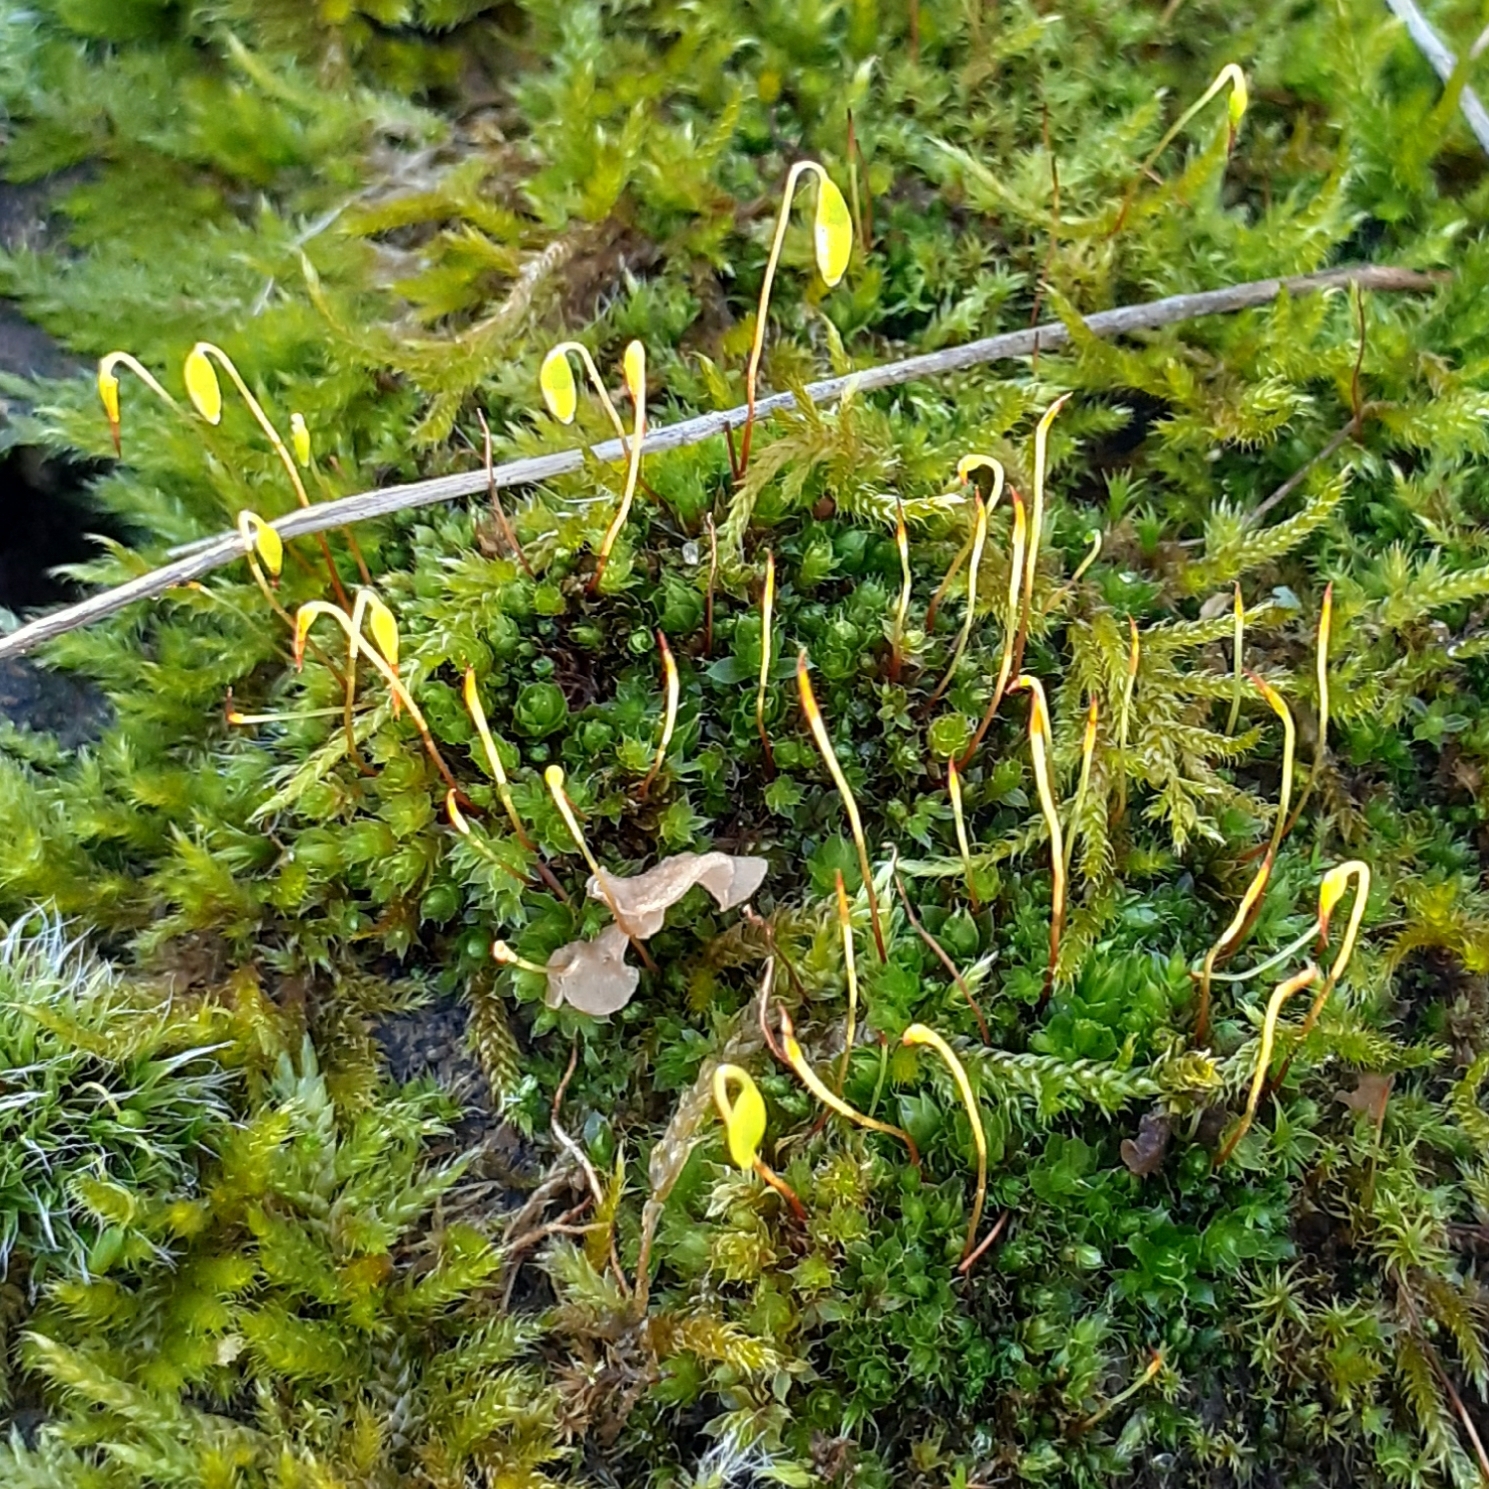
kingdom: Plantae
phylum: Bryophyta
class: Bryopsida
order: Bryales
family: Bryaceae
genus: Rosulabryum
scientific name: Rosulabryum capillare
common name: Capillary thread-moss
